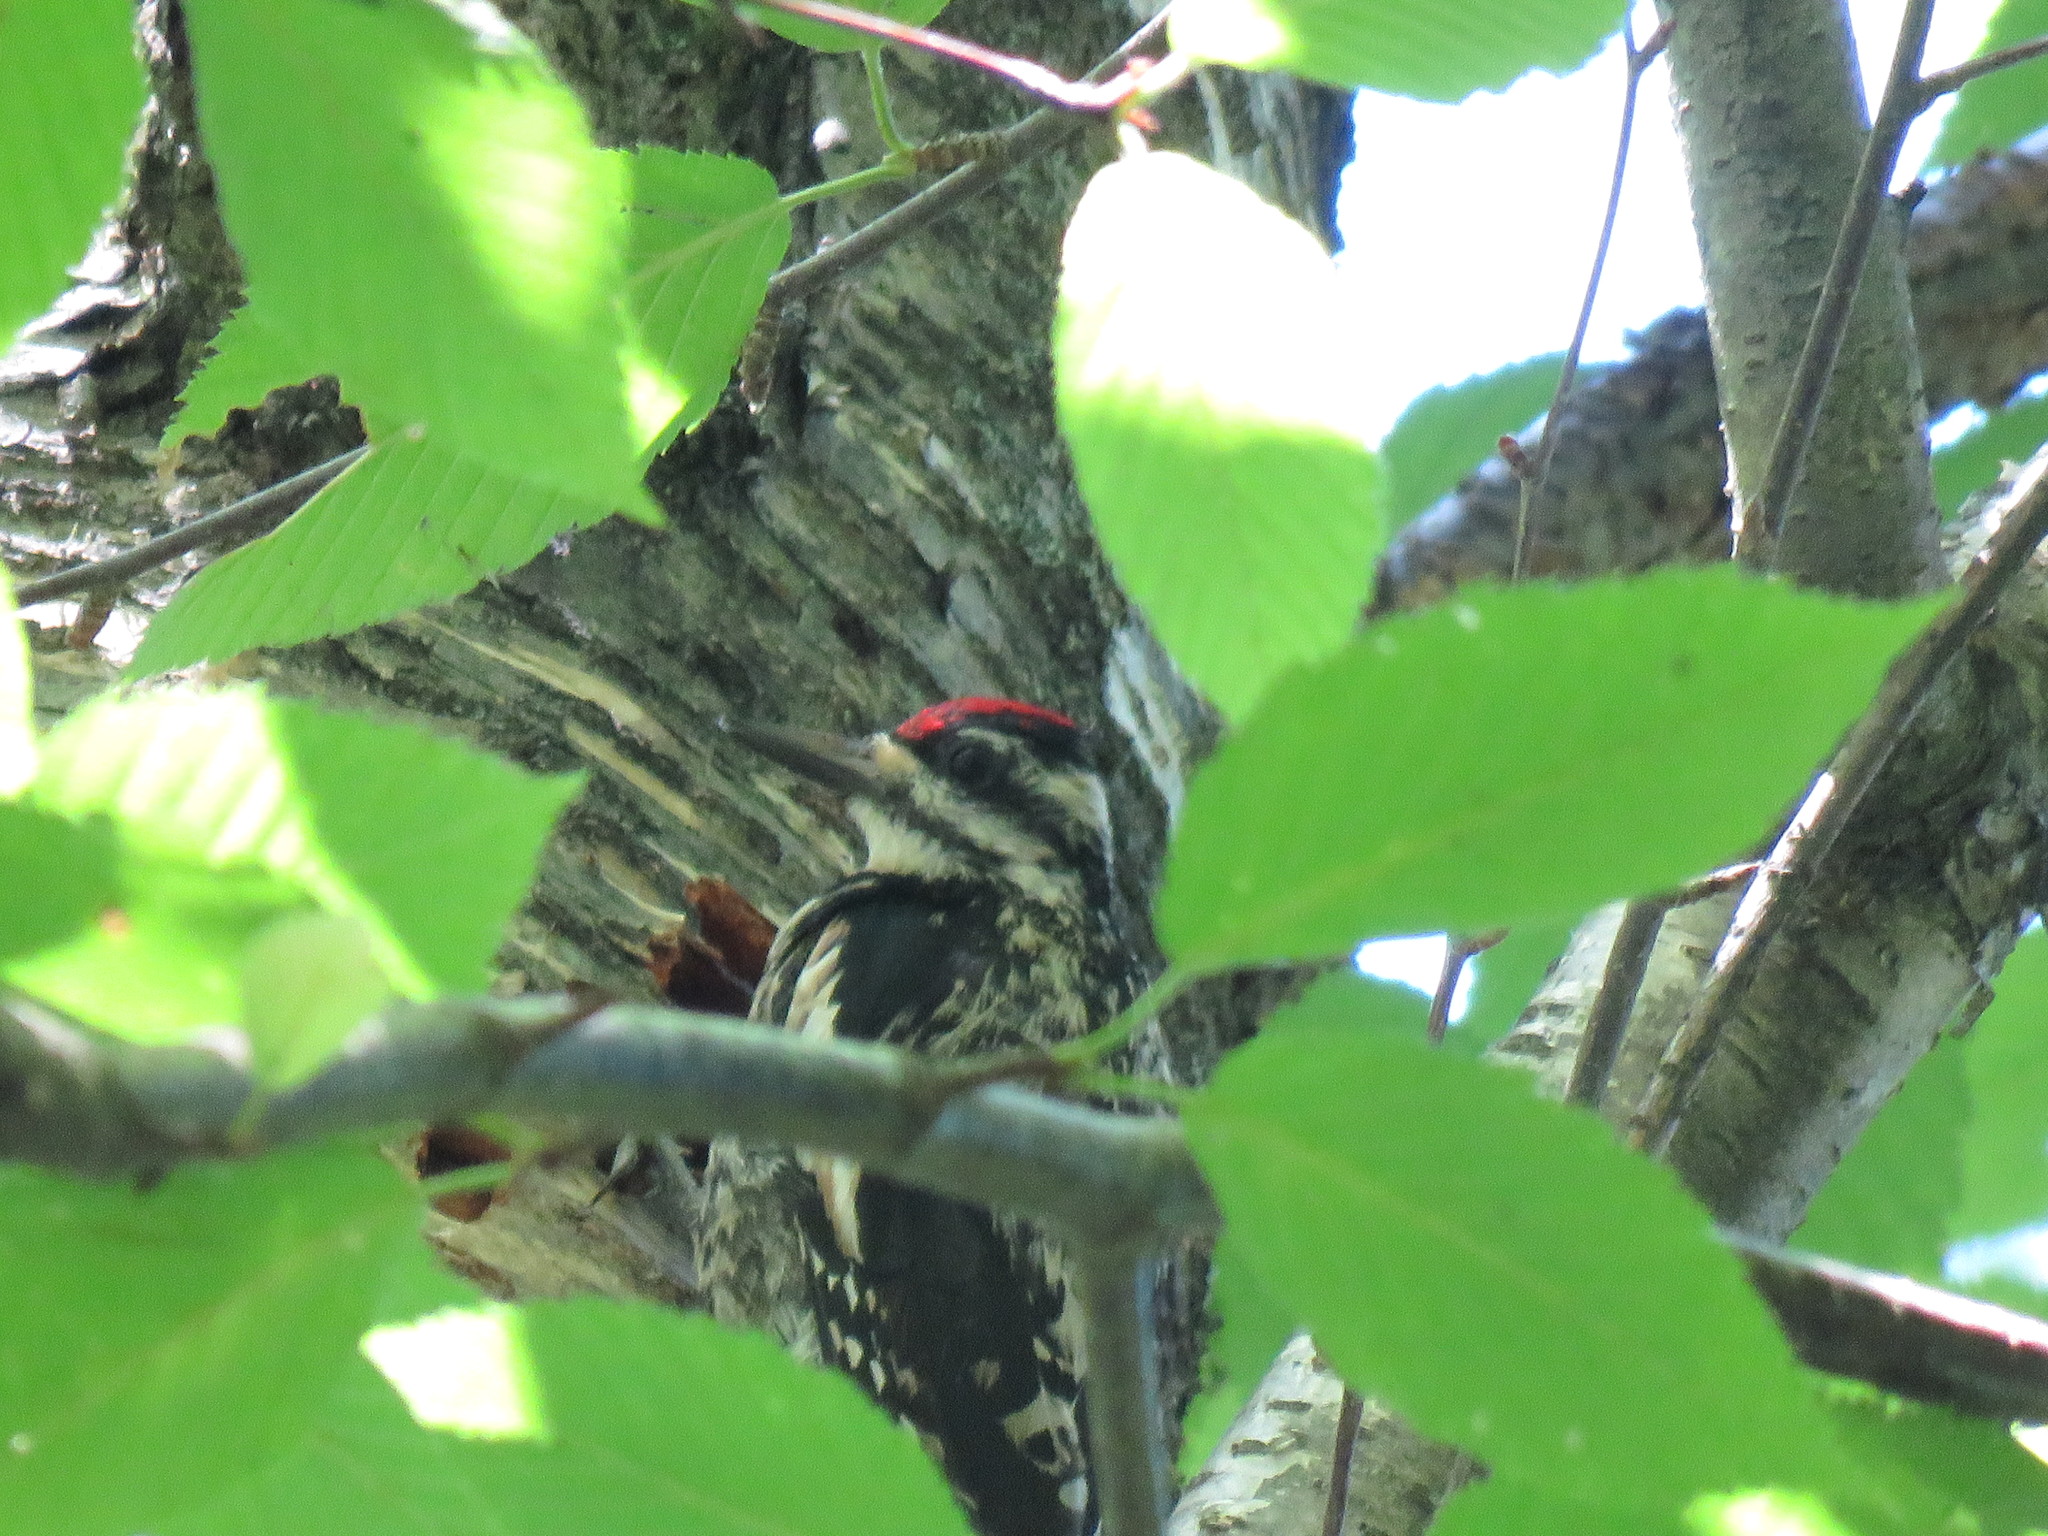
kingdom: Animalia
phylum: Chordata
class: Aves
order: Piciformes
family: Picidae
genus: Sphyrapicus
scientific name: Sphyrapicus varius
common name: Yellow-bellied sapsucker
